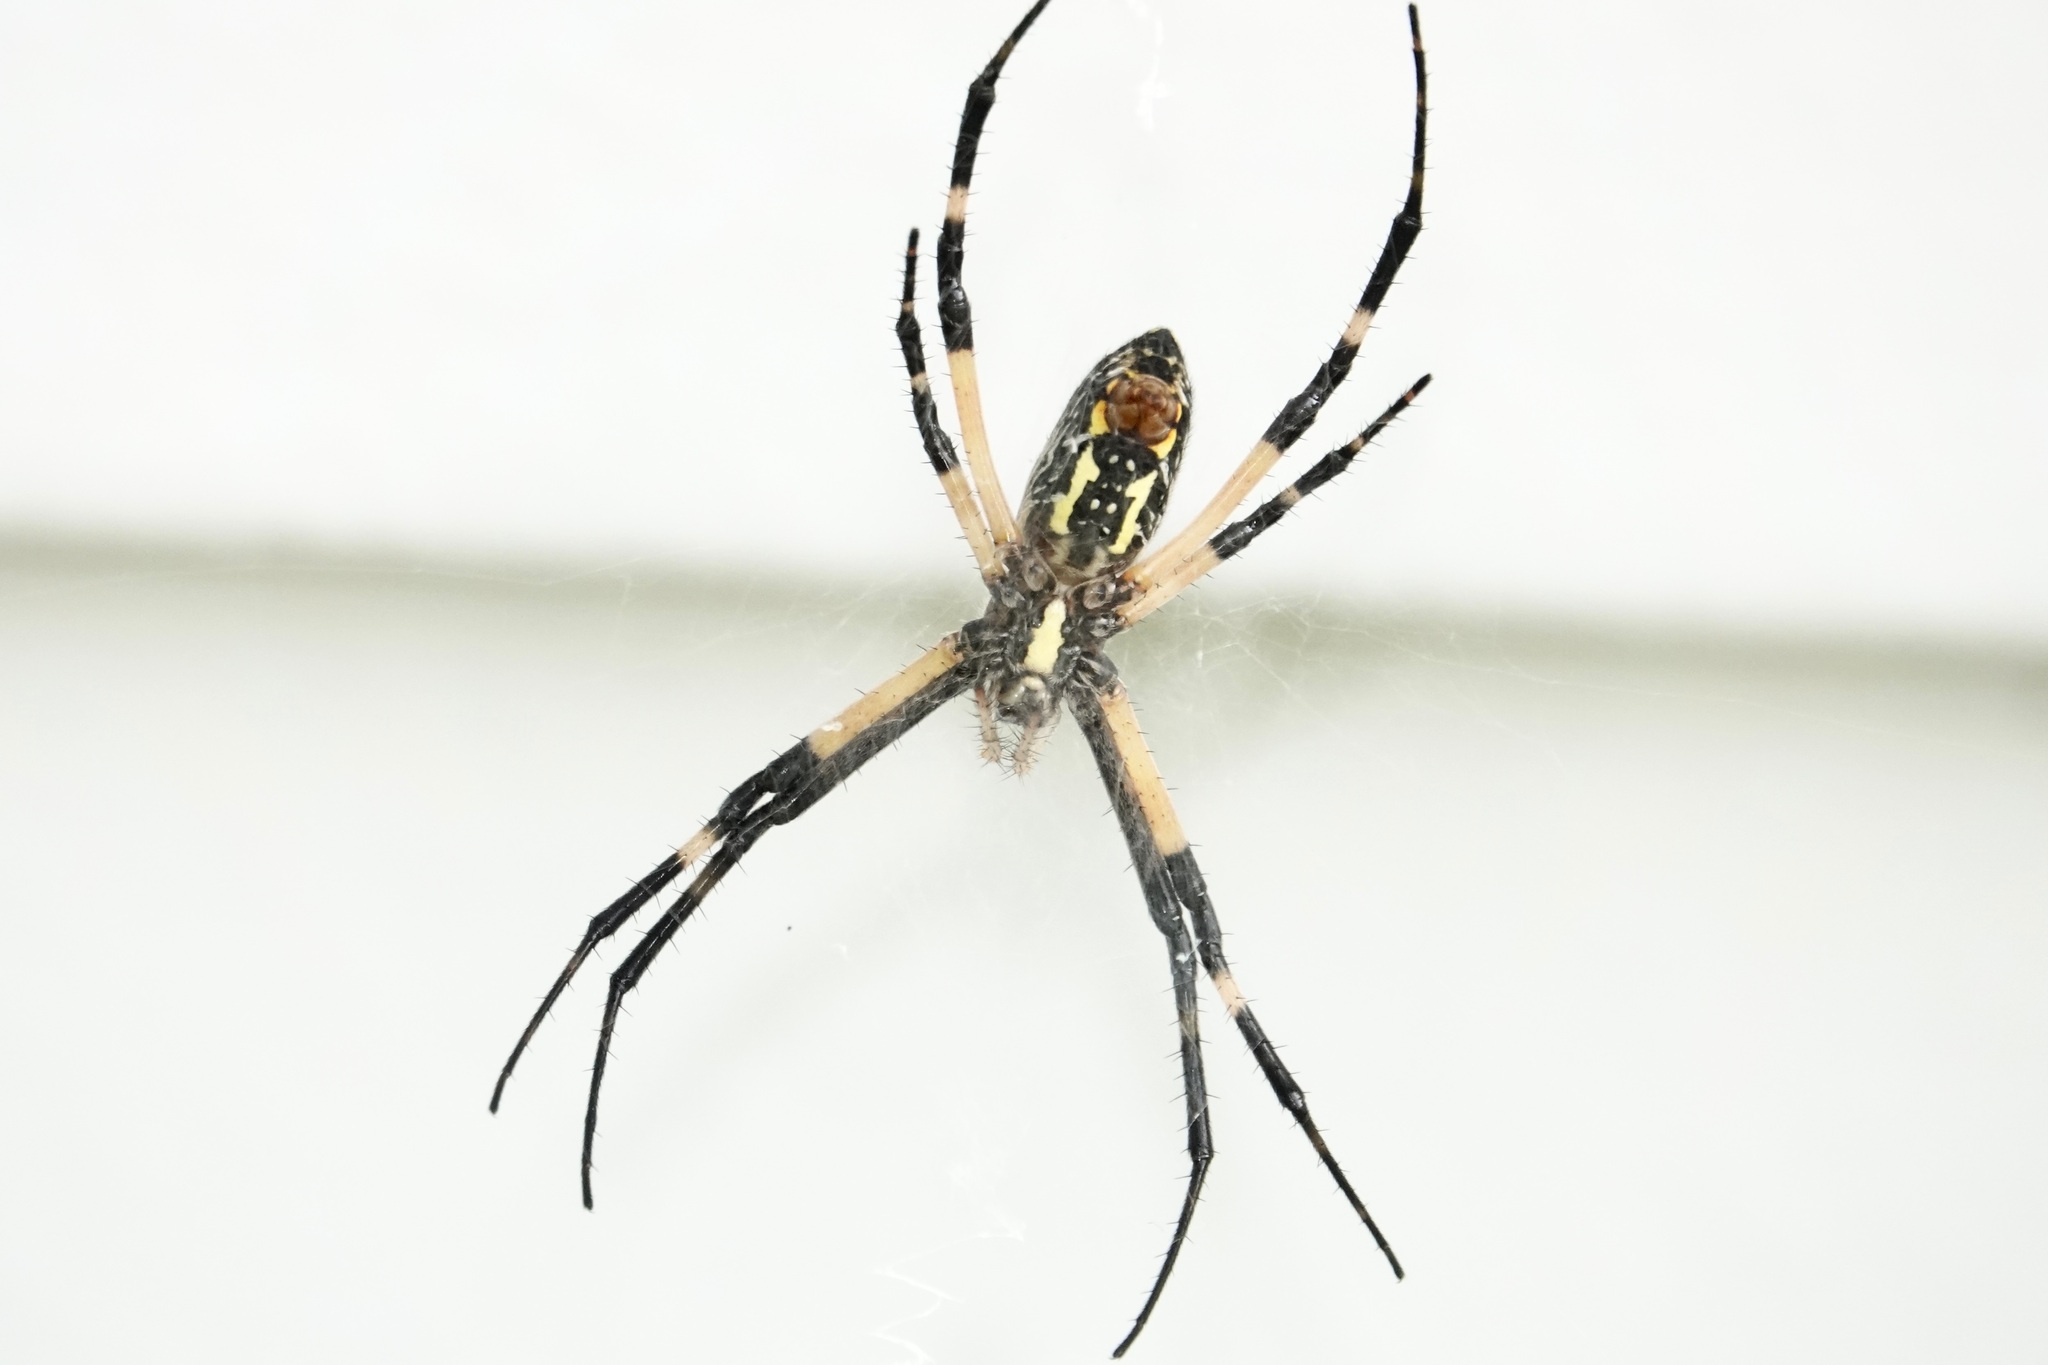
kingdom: Animalia
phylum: Arthropoda
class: Arachnida
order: Araneae
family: Araneidae
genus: Argiope
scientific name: Argiope aurantia
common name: Orb weavers
